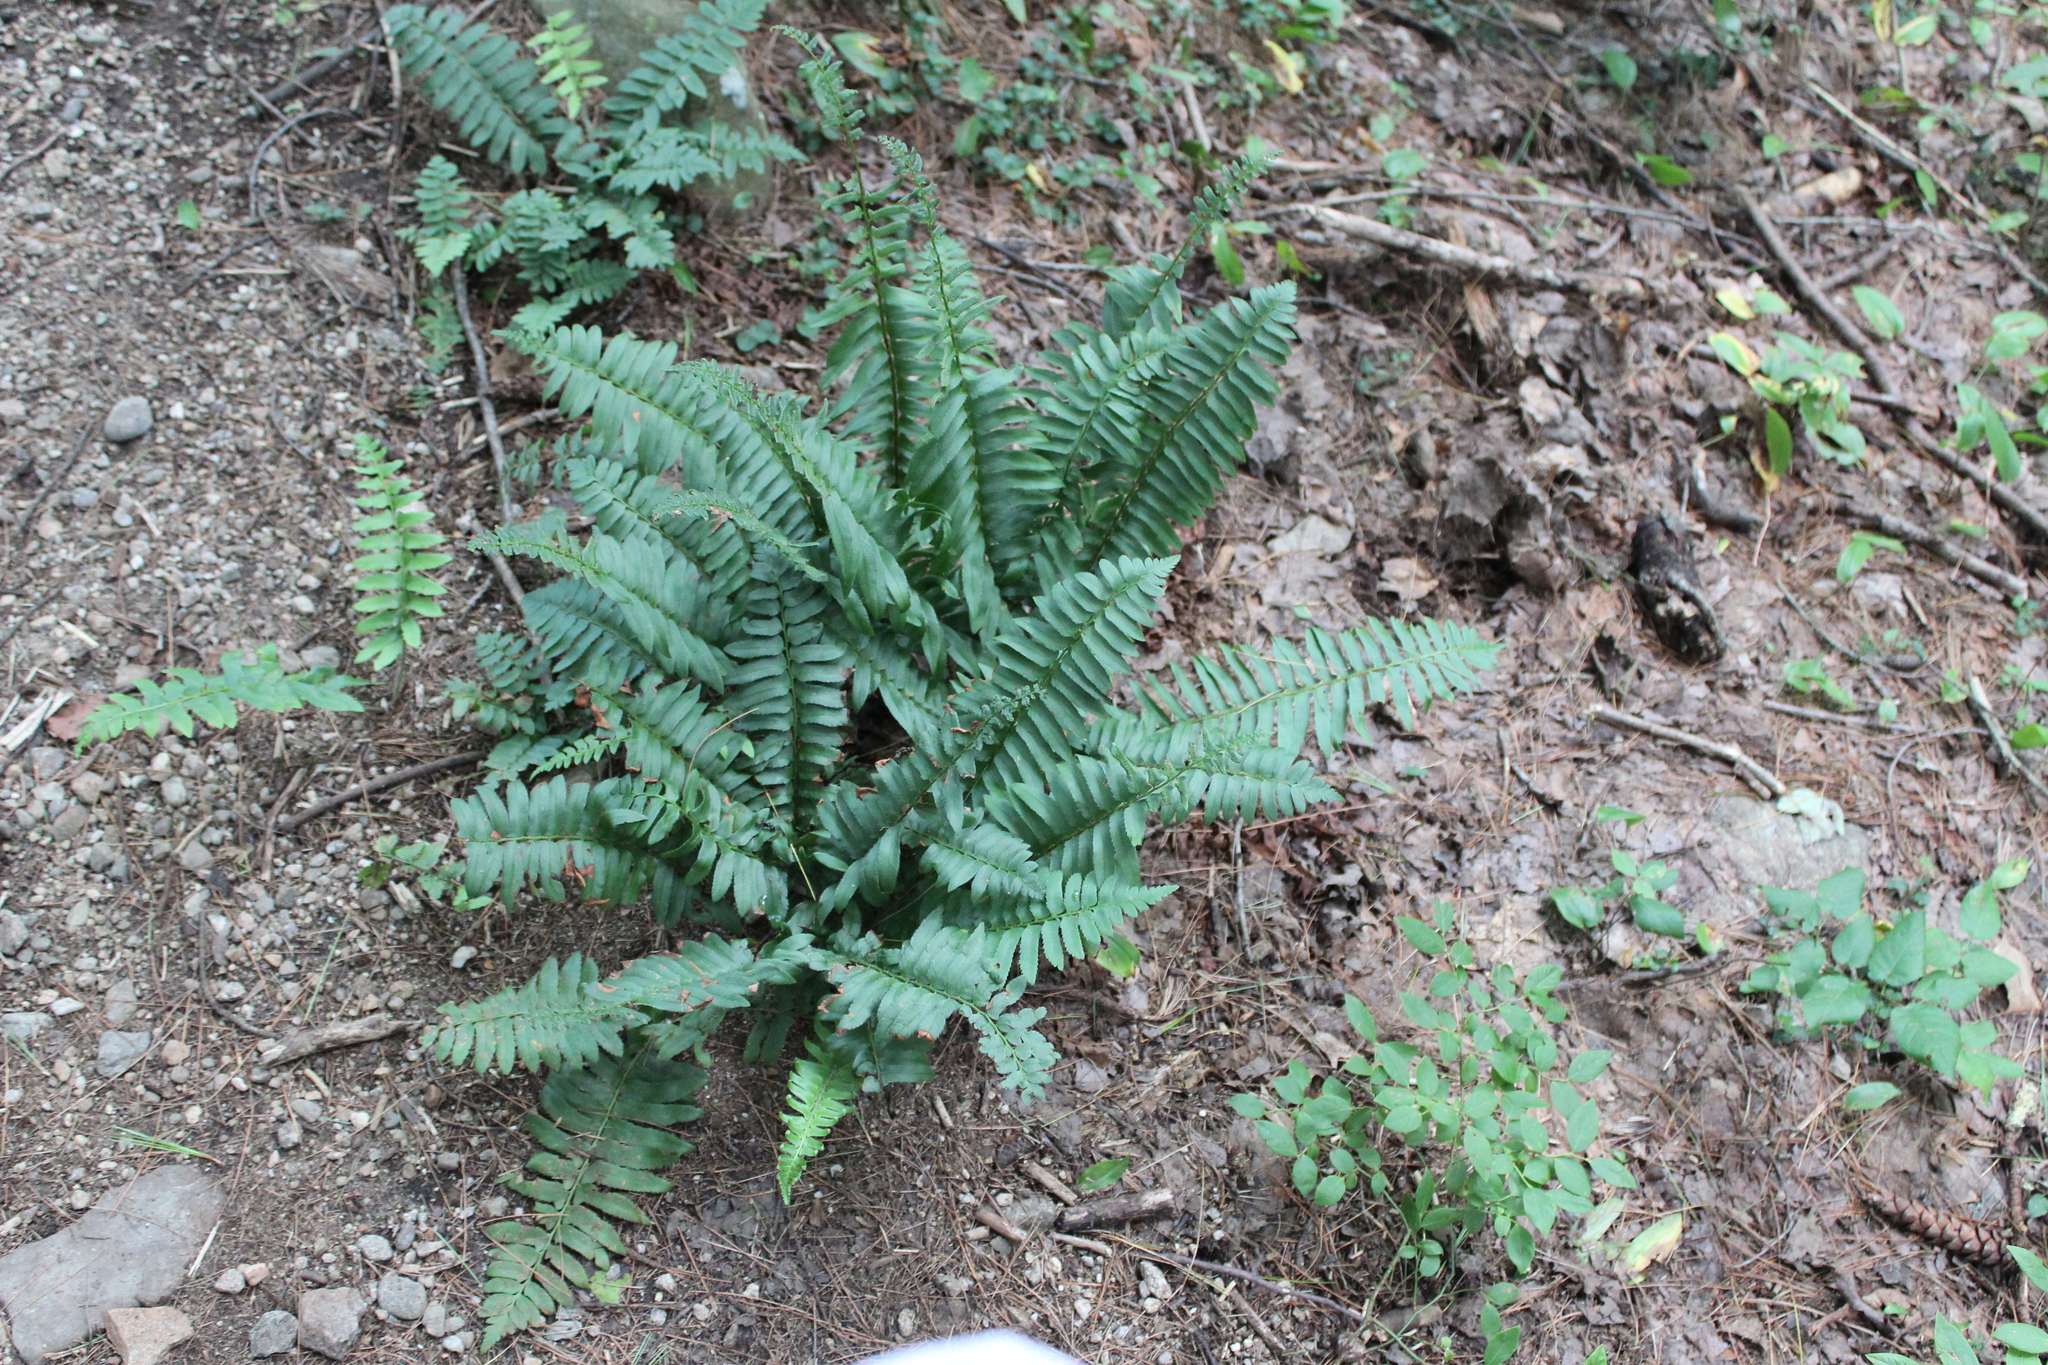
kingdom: Plantae
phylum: Tracheophyta
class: Polypodiopsida
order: Polypodiales
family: Dryopteridaceae
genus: Polystichum
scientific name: Polystichum acrostichoides
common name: Christmas fern
